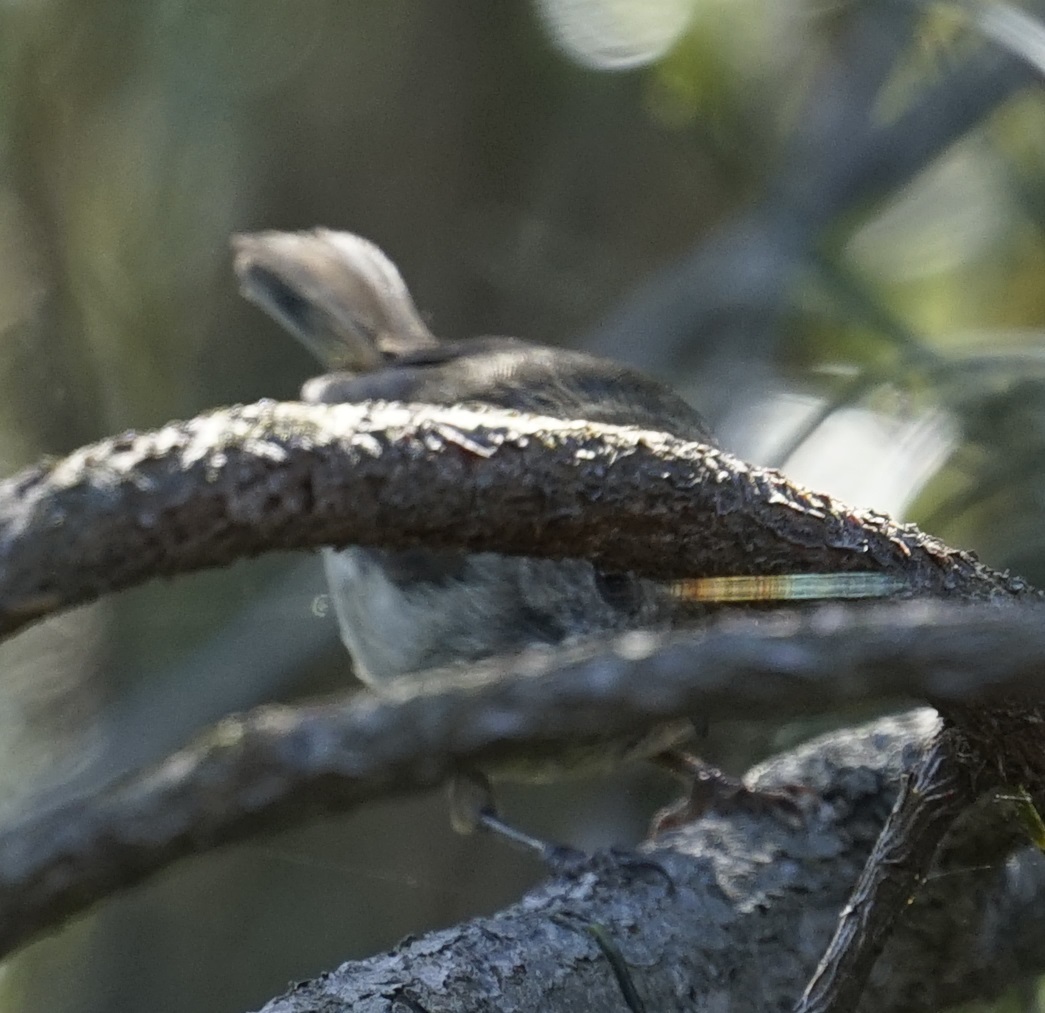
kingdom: Animalia
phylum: Chordata
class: Aves
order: Passeriformes
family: Acanthizidae
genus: Acanthiza
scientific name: Acanthiza pusilla
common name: Brown thornbill
